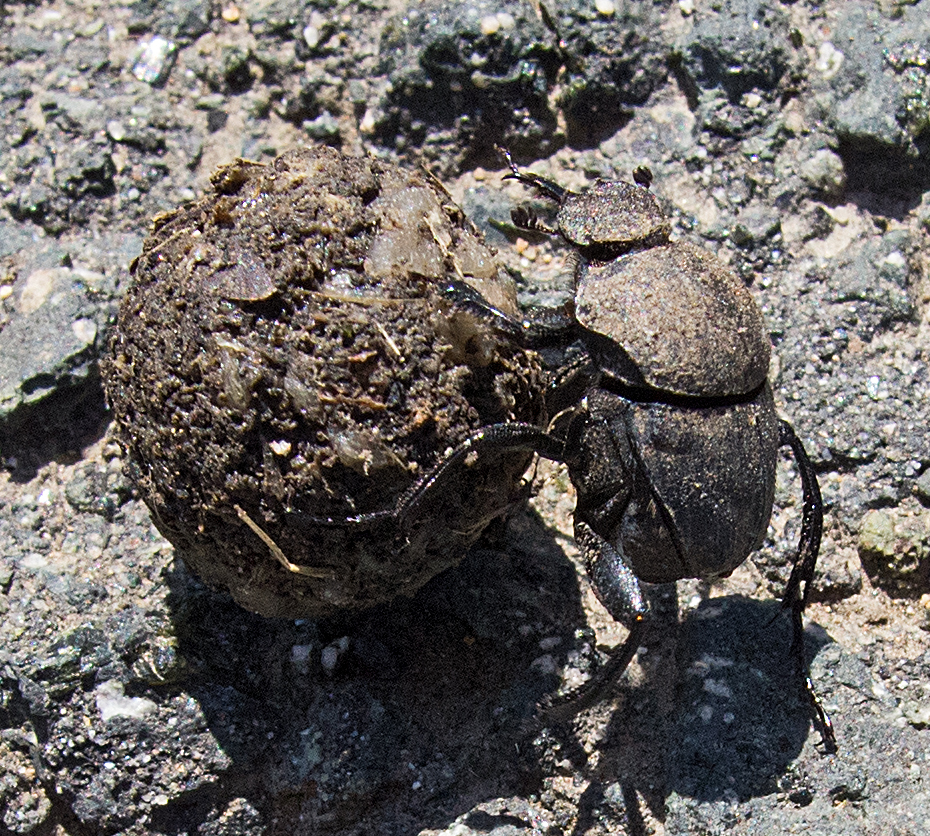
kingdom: Animalia
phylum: Arthropoda
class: Insecta
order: Coleoptera
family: Scarabaeidae
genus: Sisyphus
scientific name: Sisyphus schaefferi
